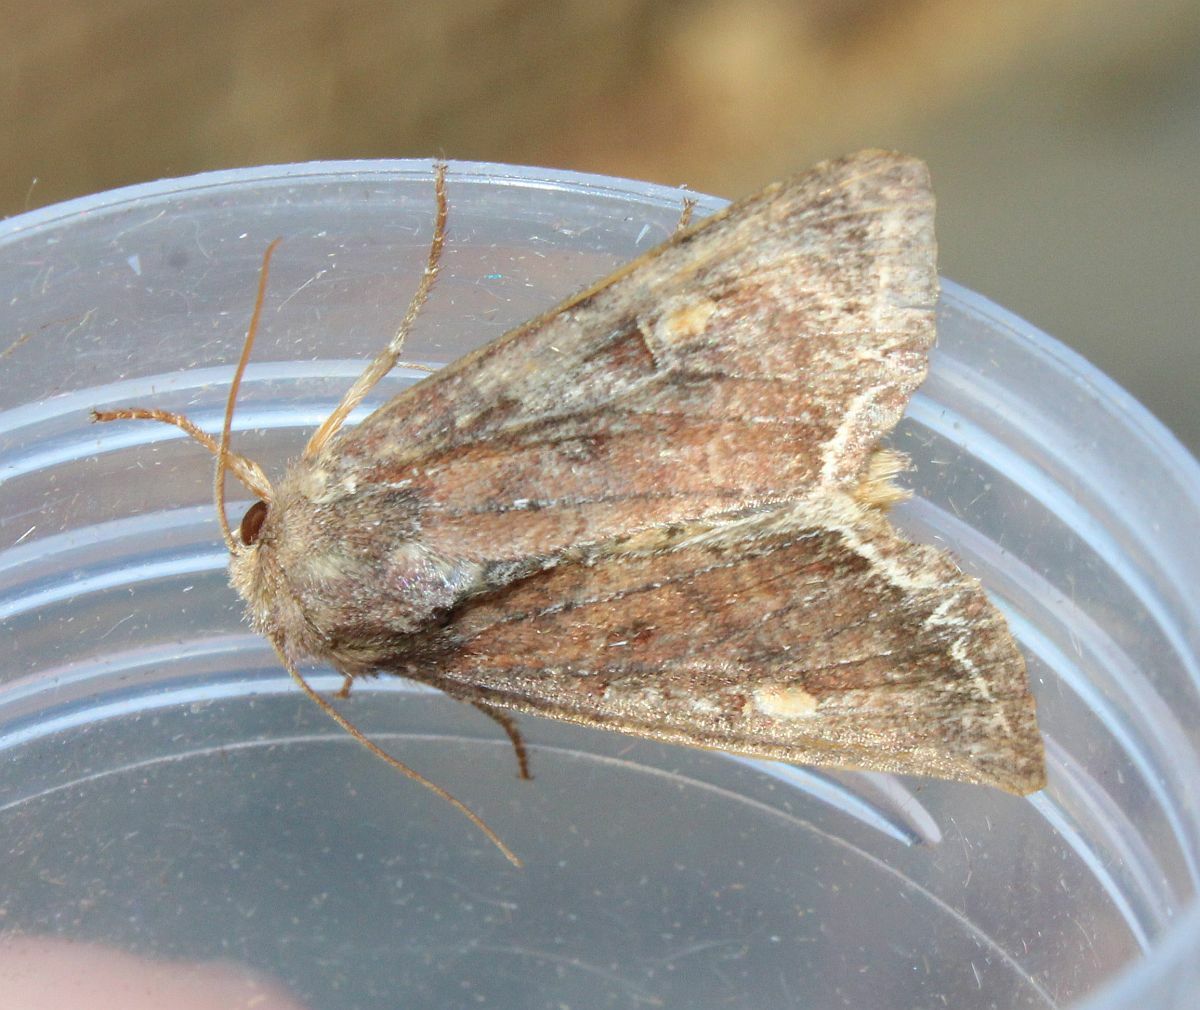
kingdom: Animalia
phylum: Arthropoda
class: Insecta
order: Lepidoptera
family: Noctuidae
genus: Lacanobia
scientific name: Lacanobia oleracea
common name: Bright-line brown-eye
